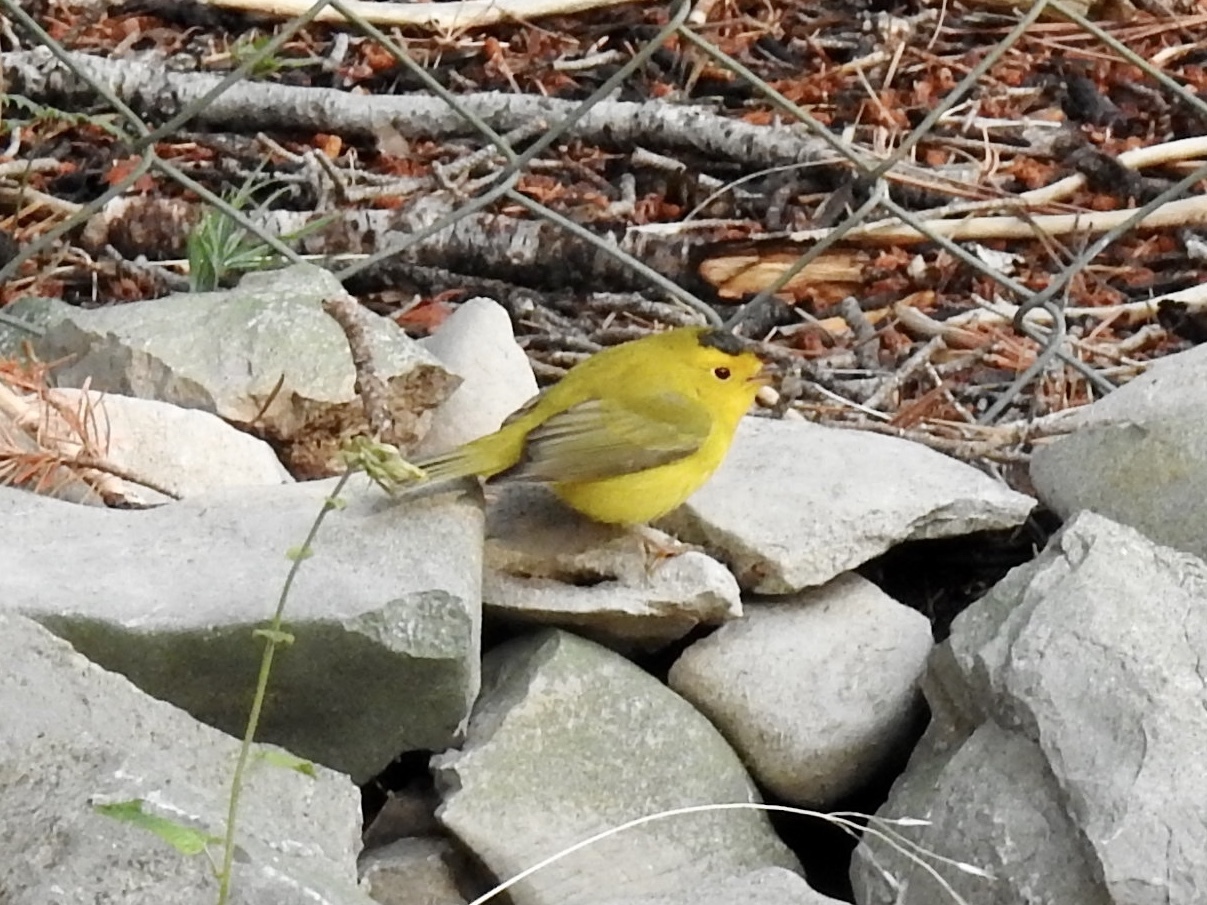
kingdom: Animalia
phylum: Chordata
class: Aves
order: Passeriformes
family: Parulidae
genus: Cardellina
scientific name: Cardellina pusilla
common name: Wilson's warbler
